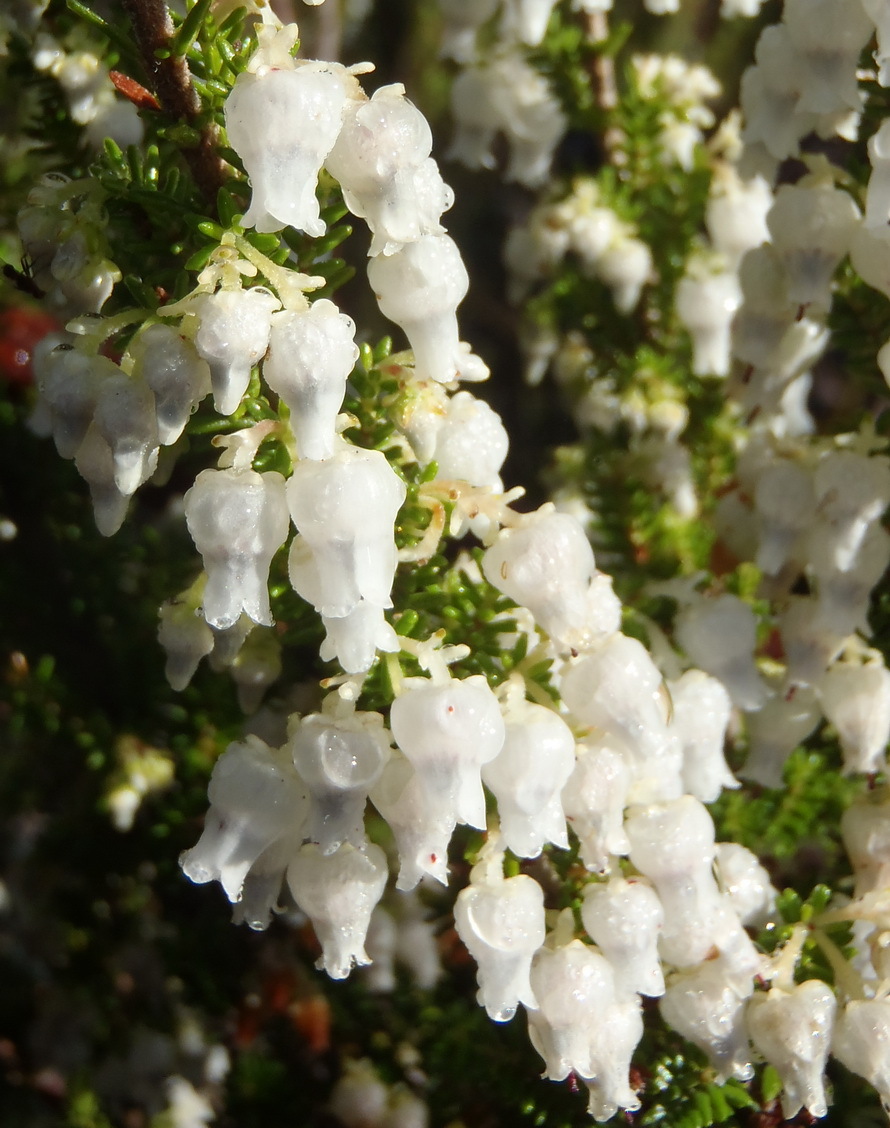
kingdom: Plantae
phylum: Tracheophyta
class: Magnoliopsida
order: Ericales
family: Ericaceae
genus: Erica
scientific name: Erica glomiflora
